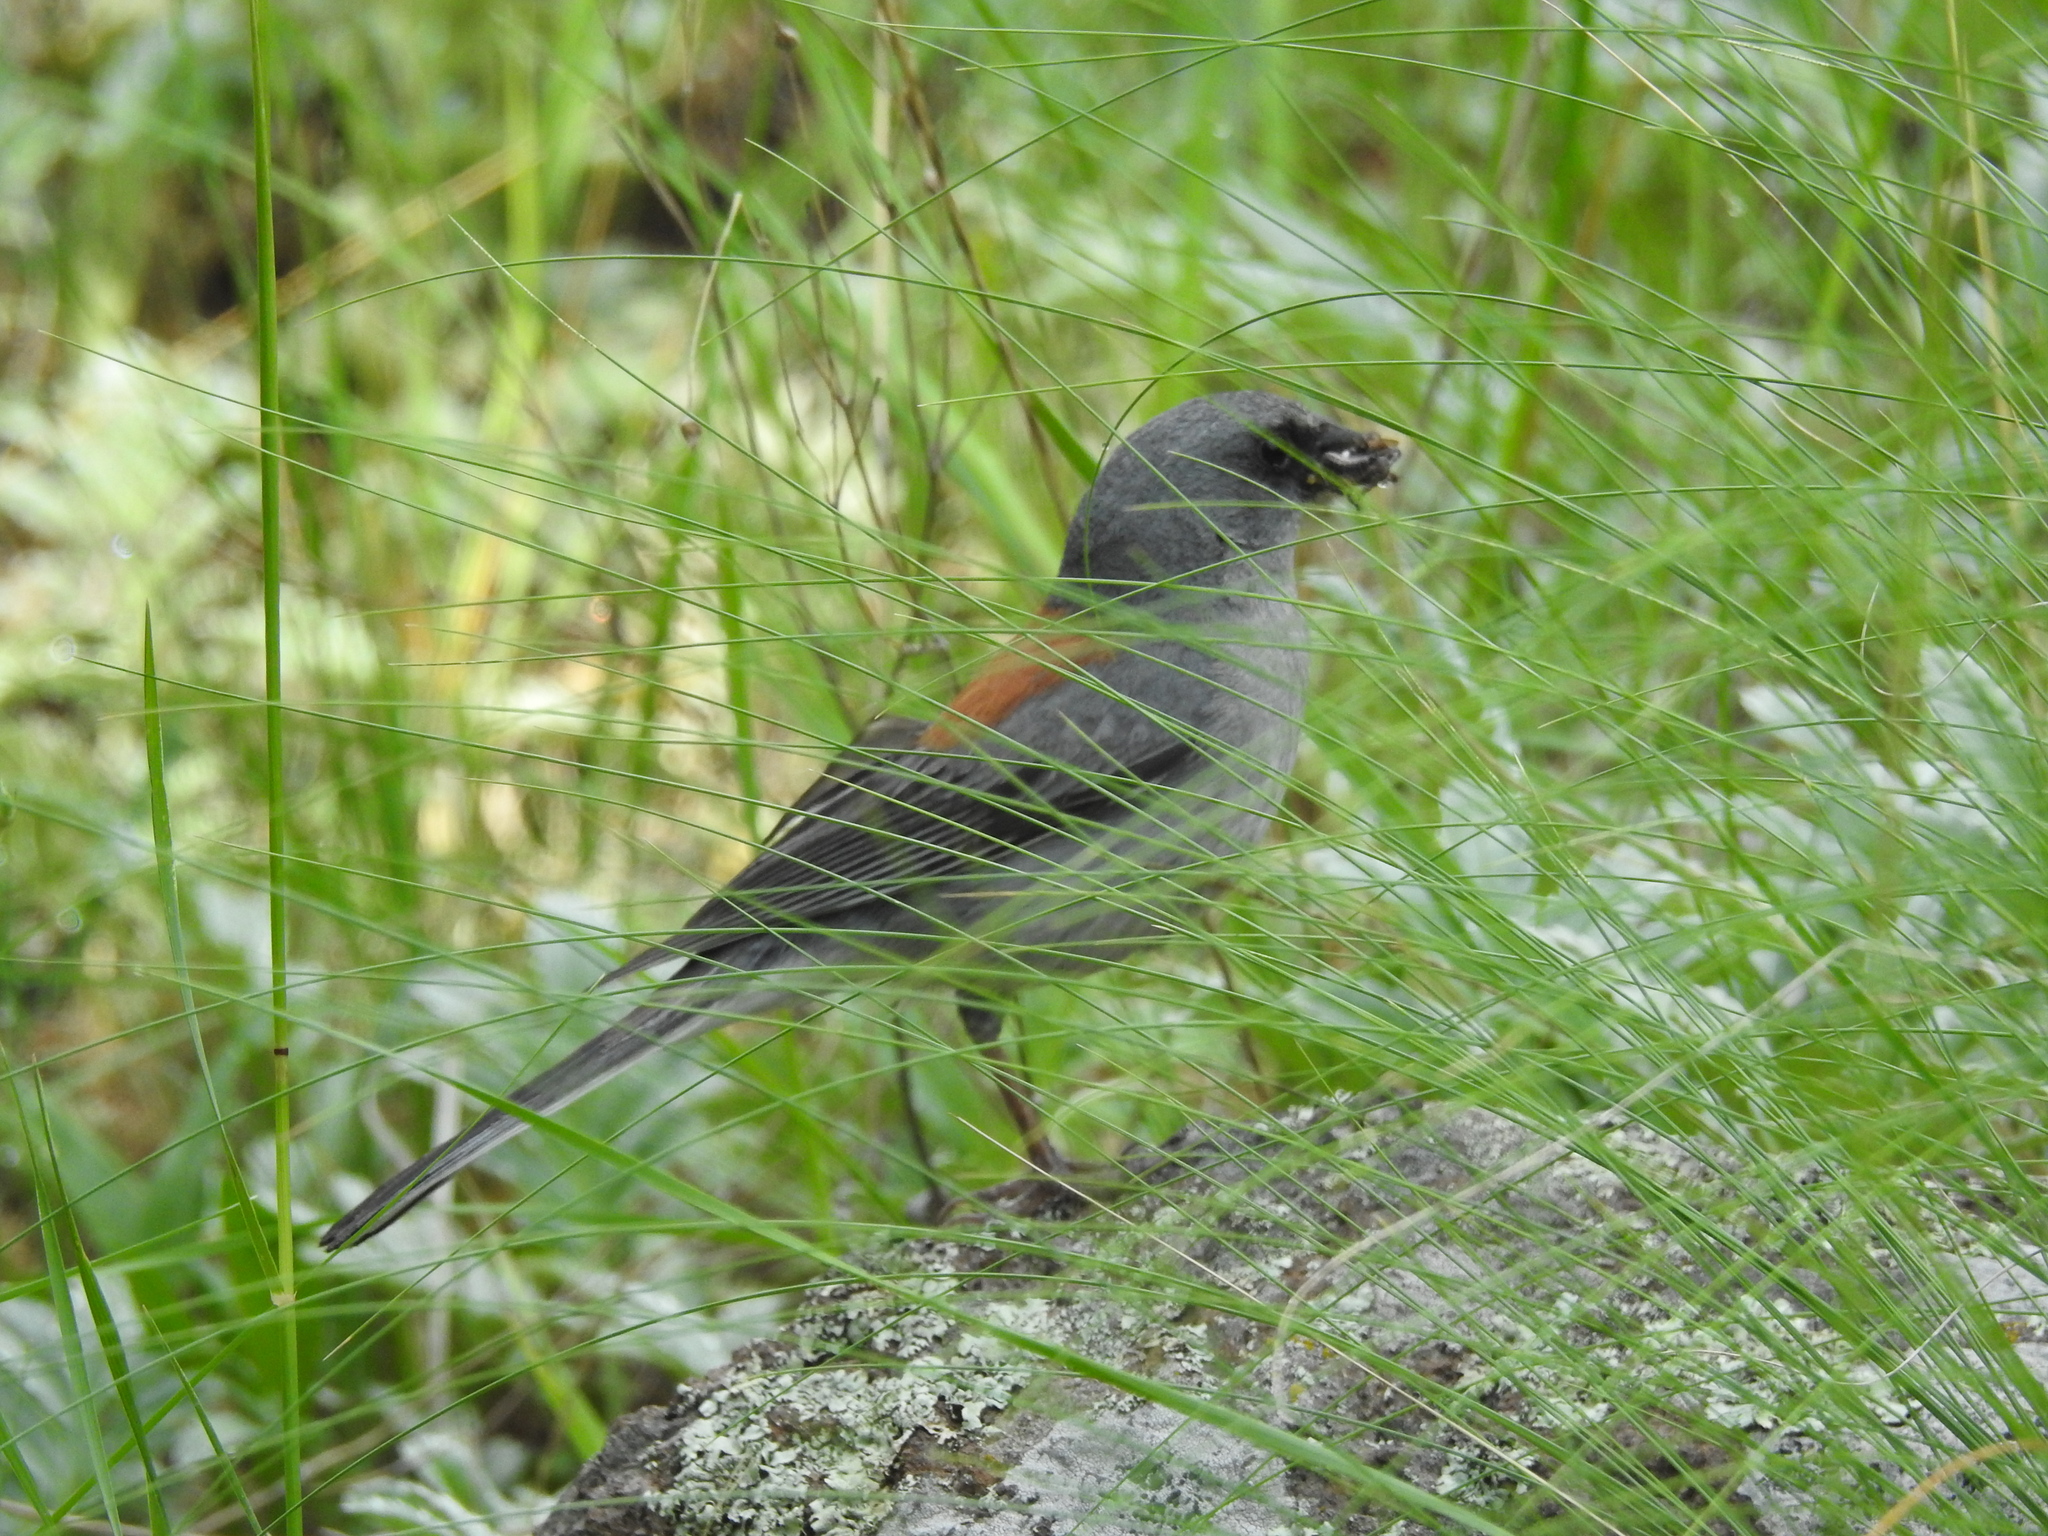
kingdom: Animalia
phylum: Chordata
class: Aves
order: Passeriformes
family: Passerellidae
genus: Junco
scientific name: Junco hyemalis
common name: Dark-eyed junco
